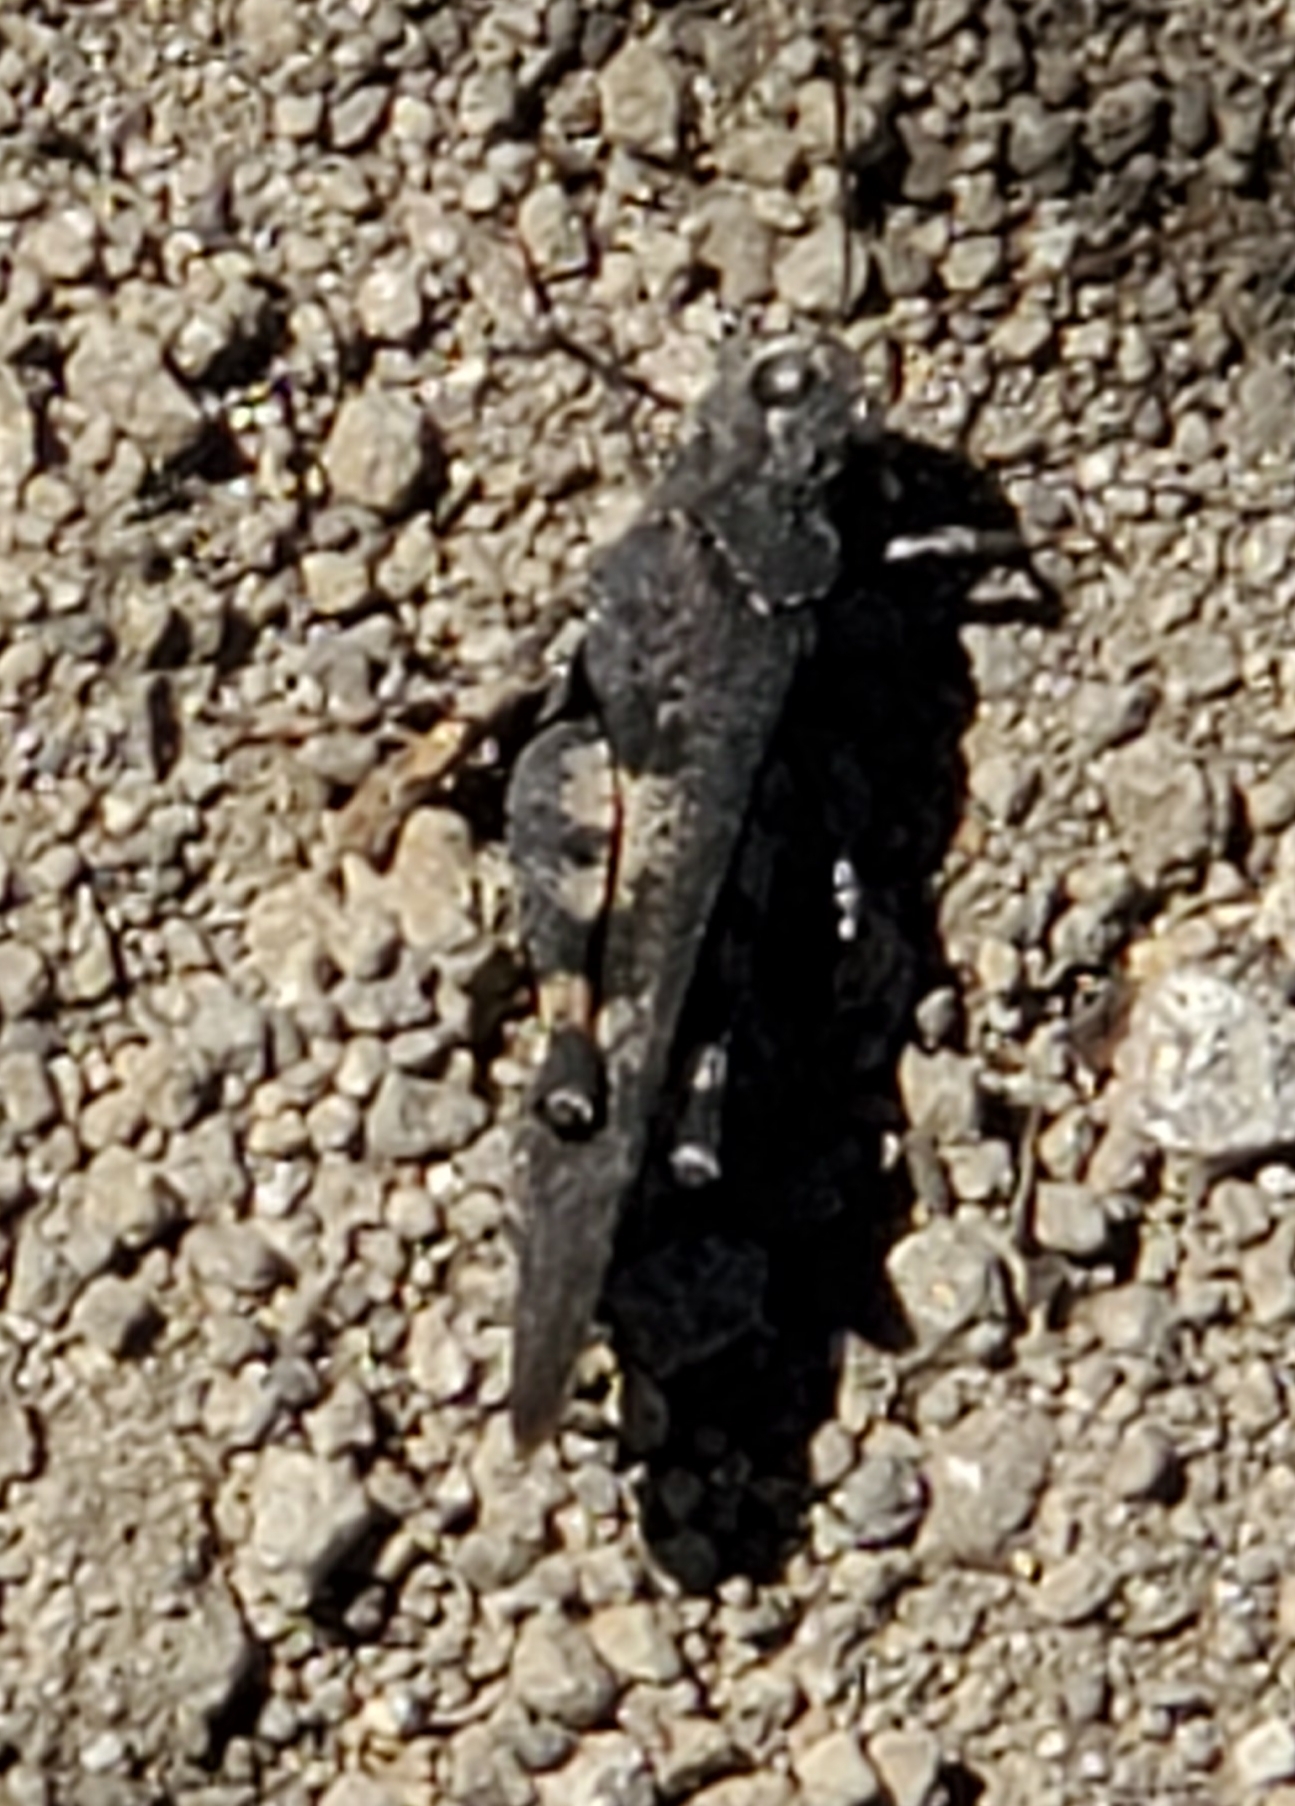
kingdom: Animalia
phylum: Arthropoda
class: Insecta
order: Orthoptera
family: Acrididae
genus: Trimerotropis
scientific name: Trimerotropis fontana
